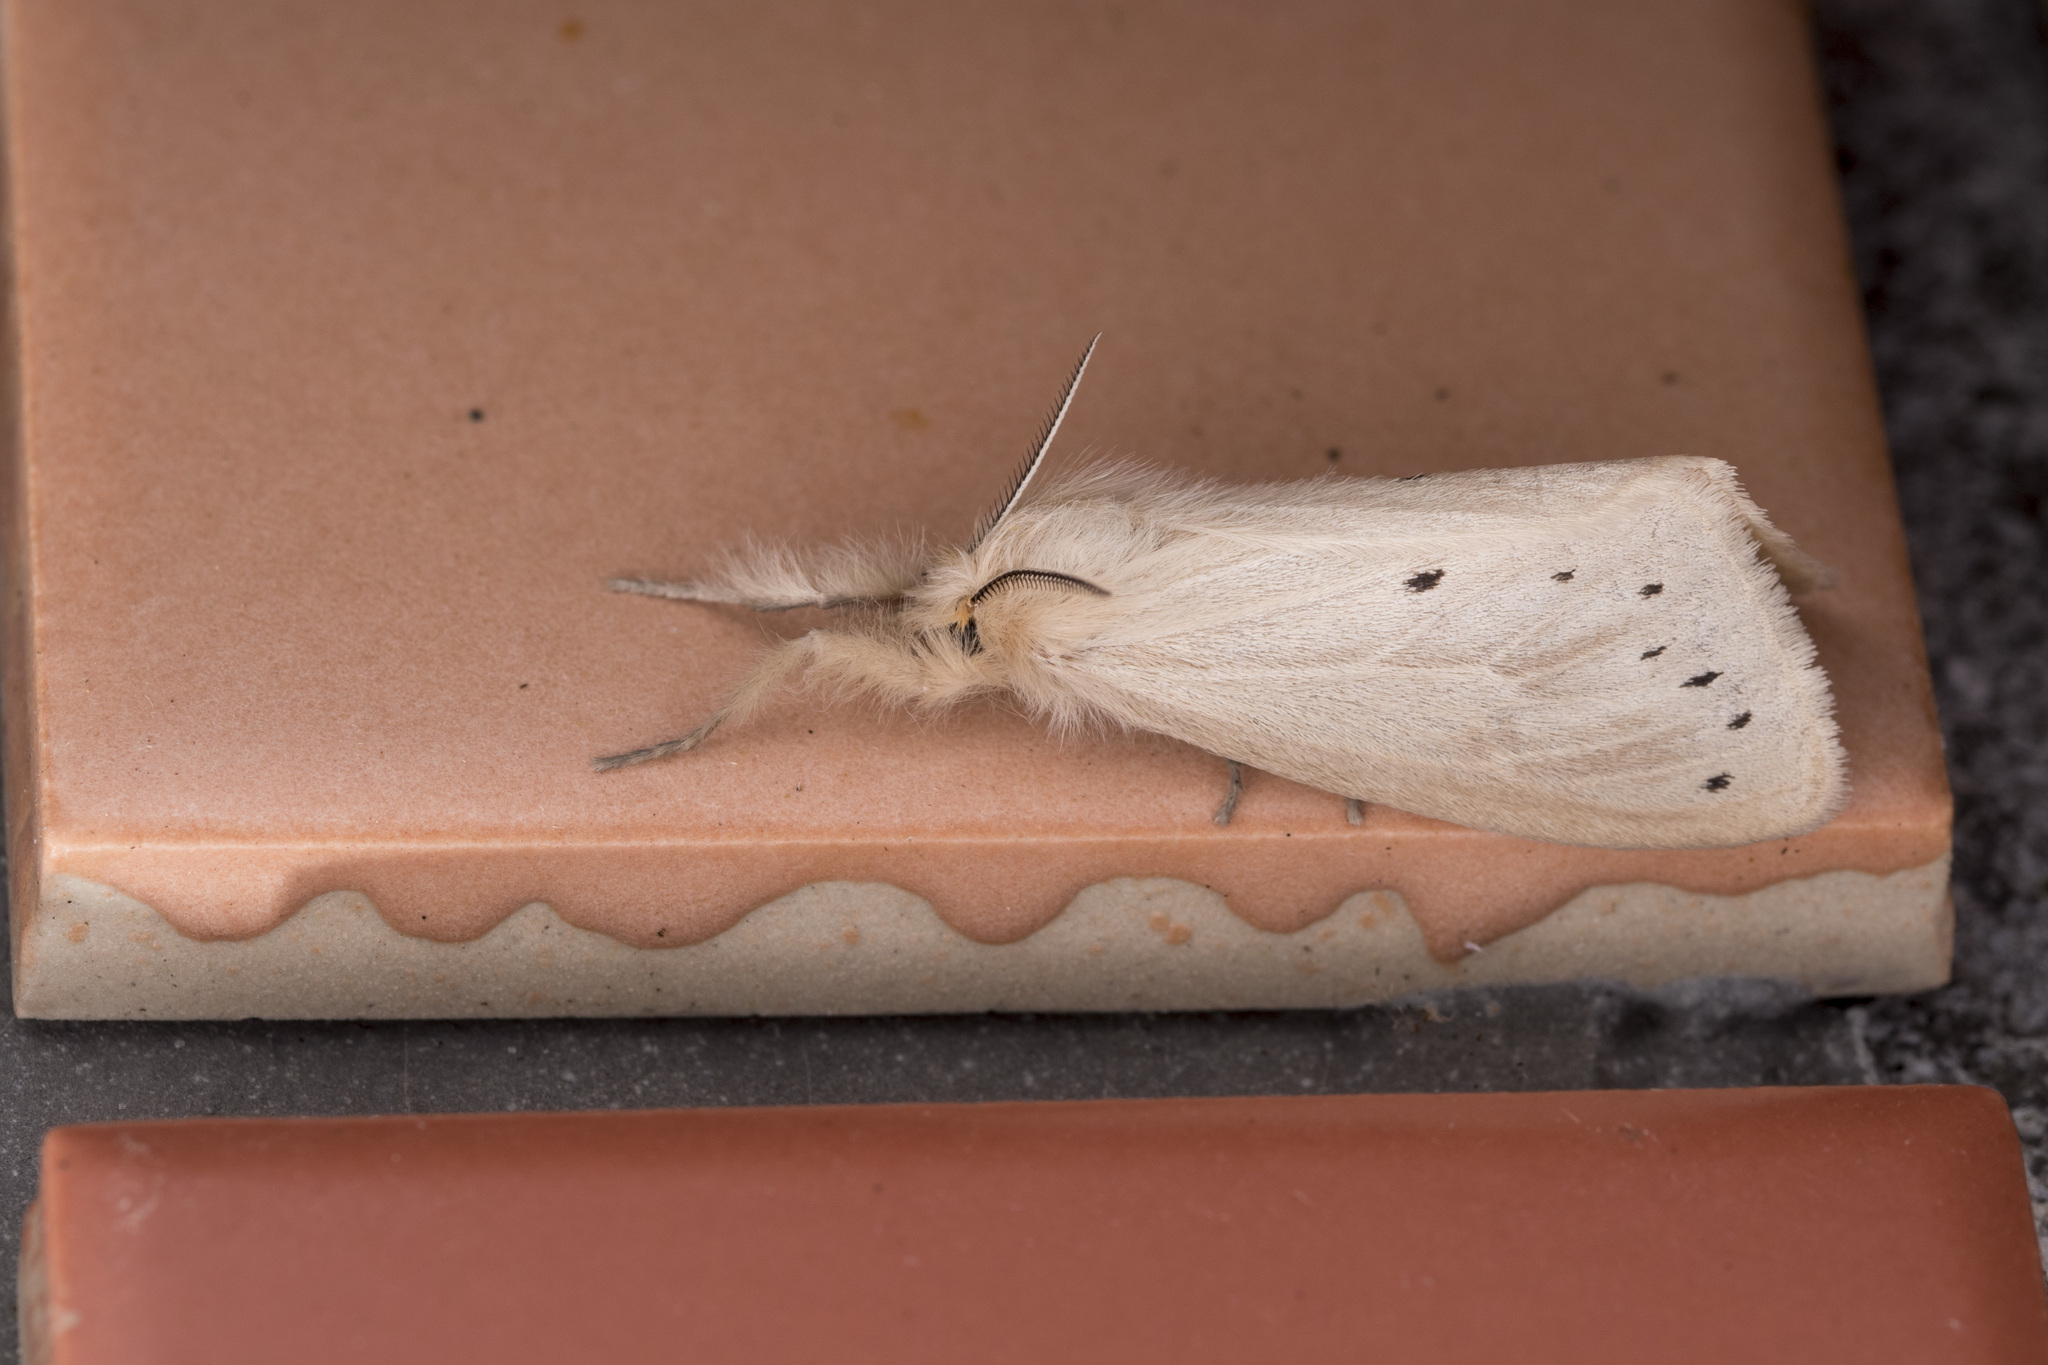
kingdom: Animalia
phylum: Arthropoda
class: Insecta
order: Lepidoptera
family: Erebidae
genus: Laelia
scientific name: Laelia formosana
